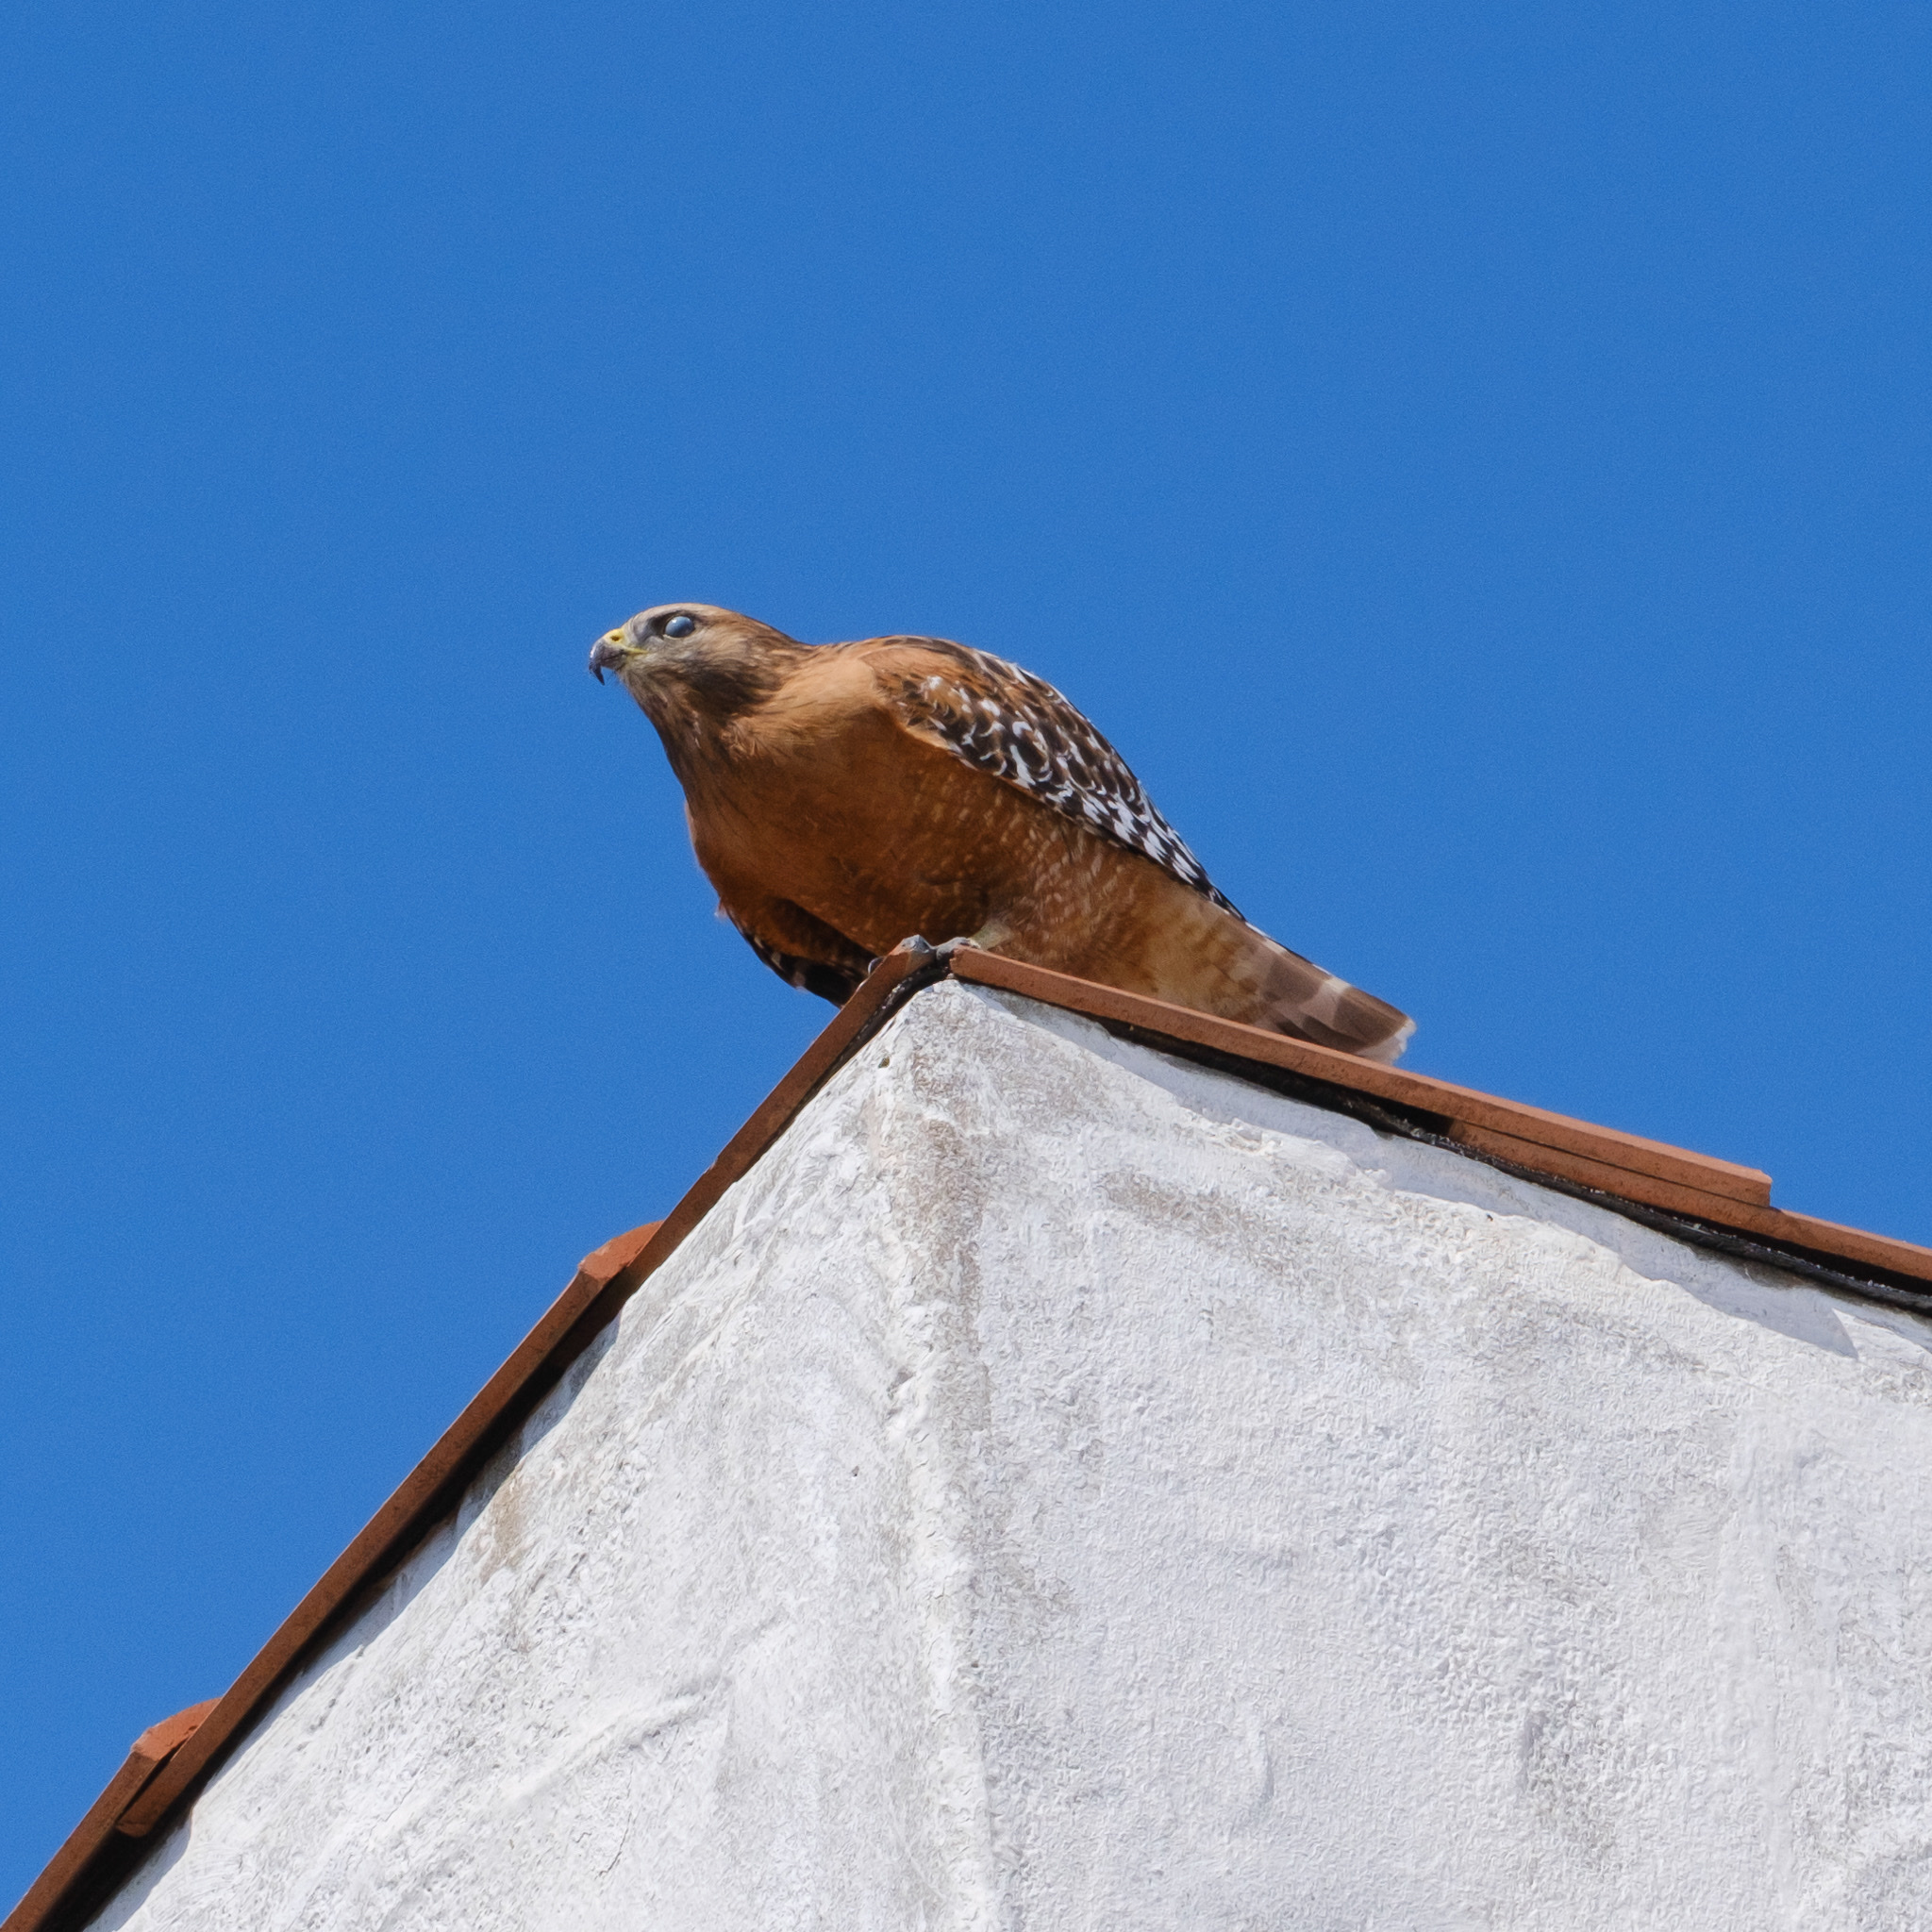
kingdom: Animalia
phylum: Chordata
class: Aves
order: Accipitriformes
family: Accipitridae
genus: Buteo
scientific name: Buteo lineatus
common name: Red-shouldered hawk
